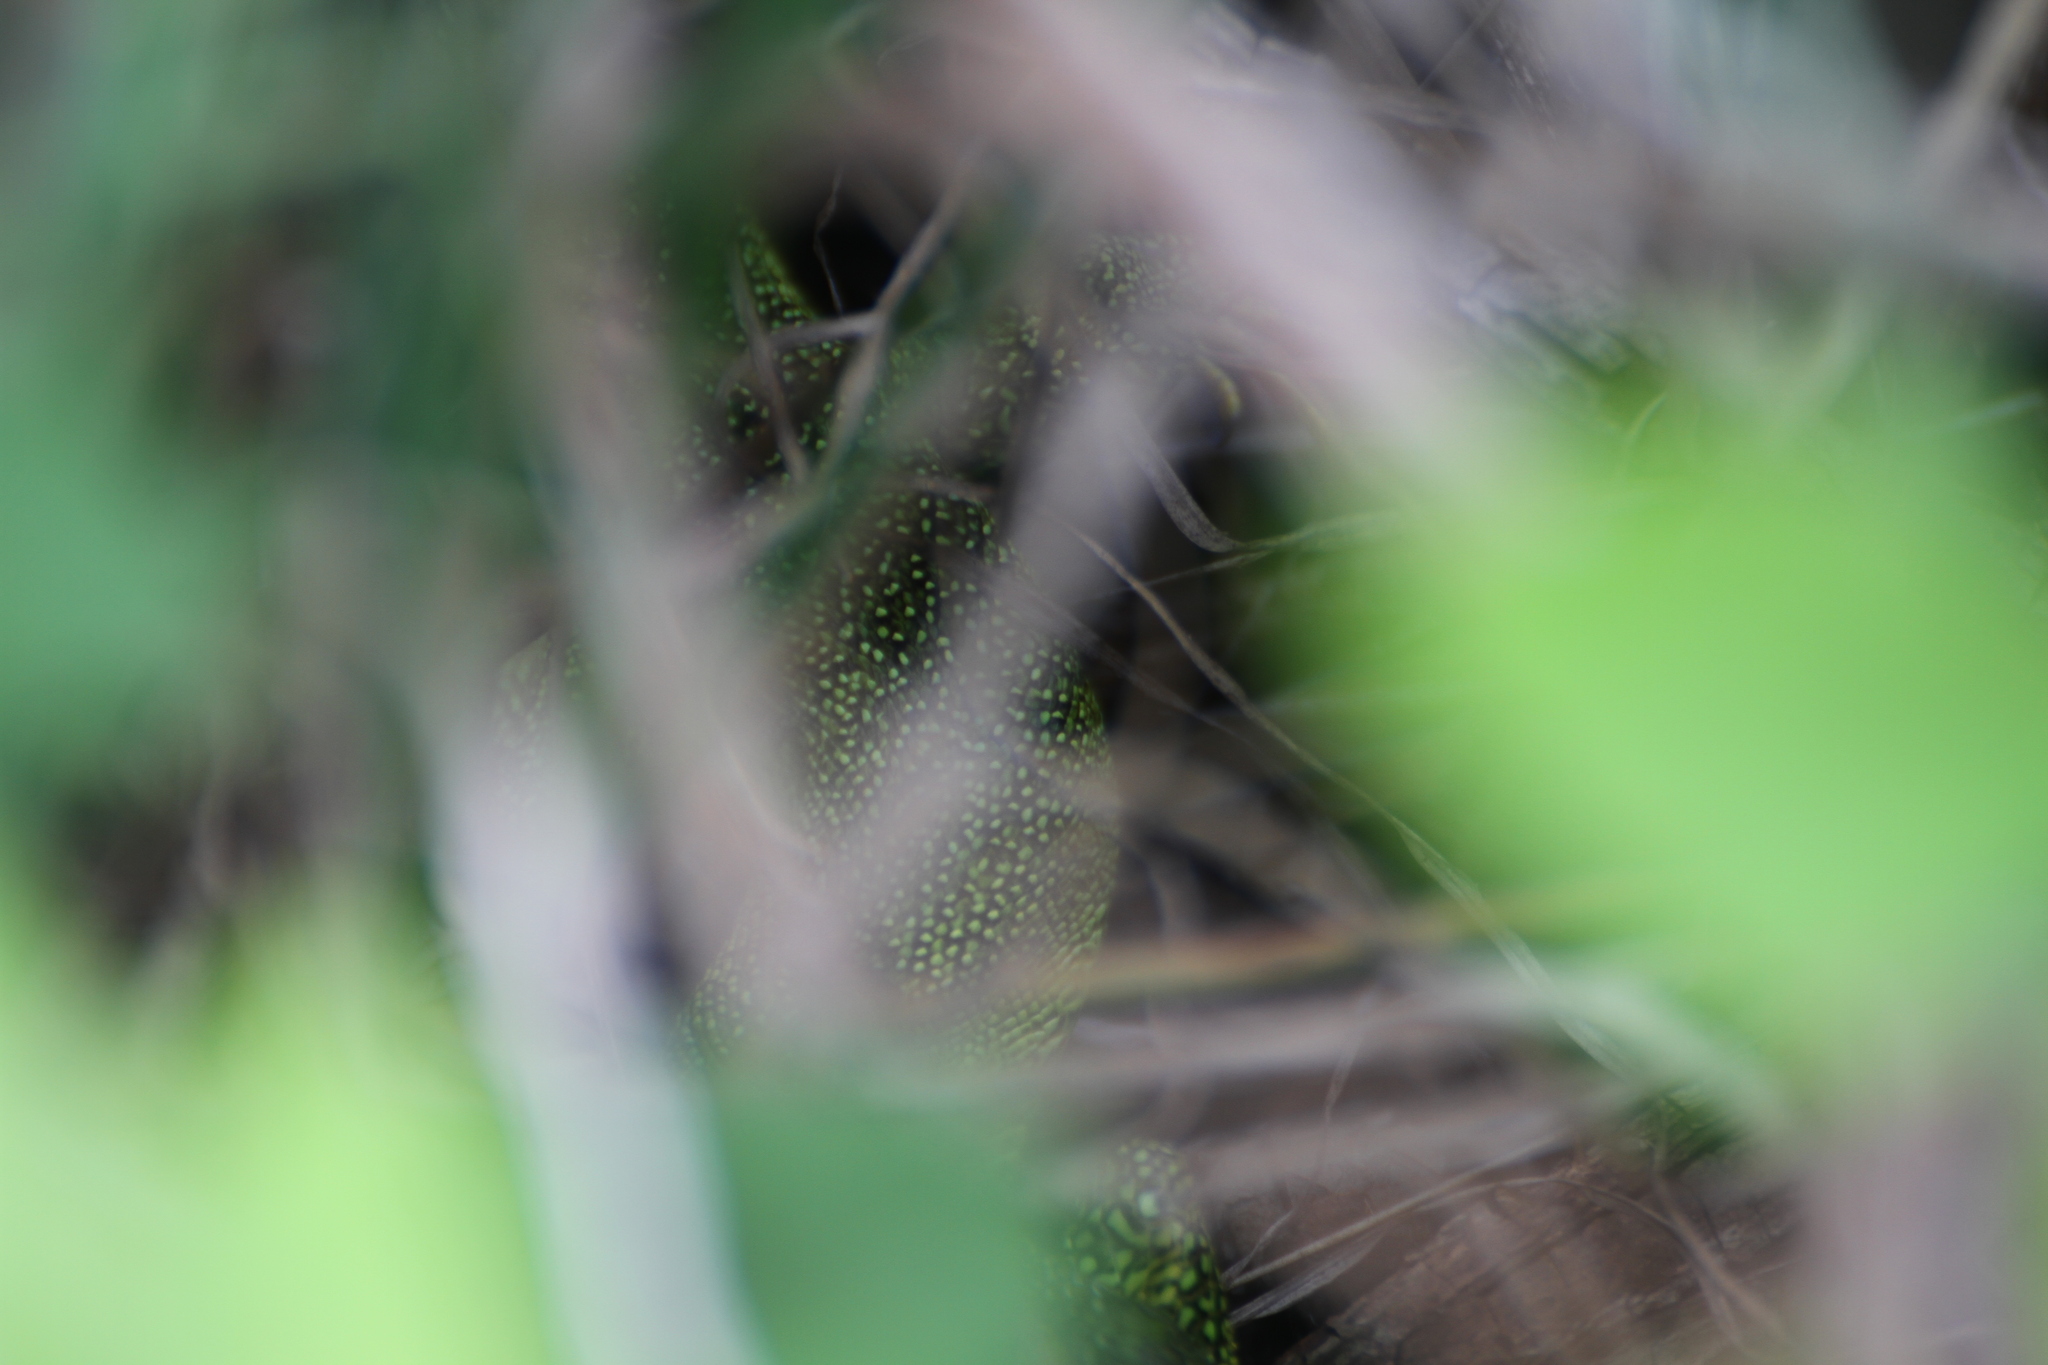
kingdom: Animalia
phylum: Chordata
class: Squamata
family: Lacertidae
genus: Lacerta
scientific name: Lacerta bilineata
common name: Western green lizard
